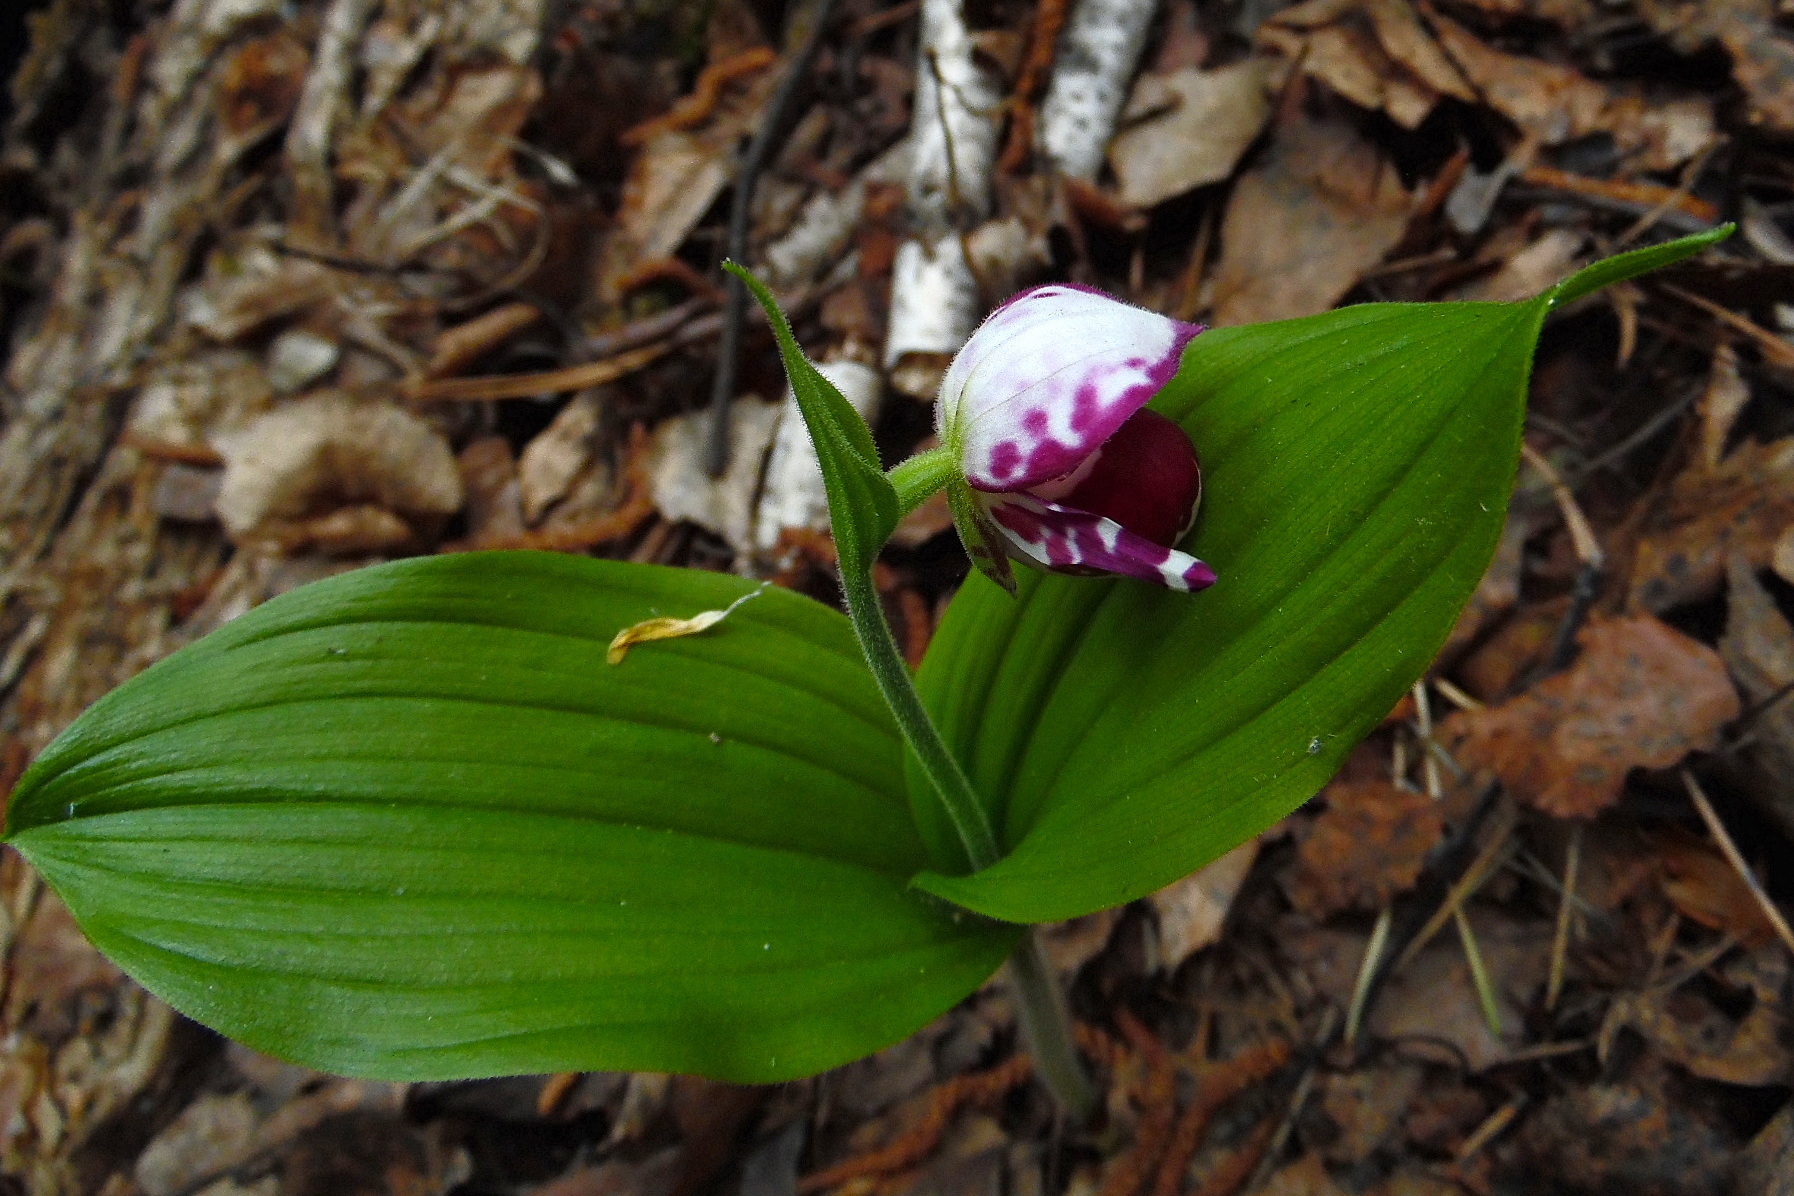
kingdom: Plantae
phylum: Tracheophyta
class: Liliopsida
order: Asparagales
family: Orchidaceae
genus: Cypripedium
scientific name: Cypripedium guttatum
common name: Pink lady slipper
